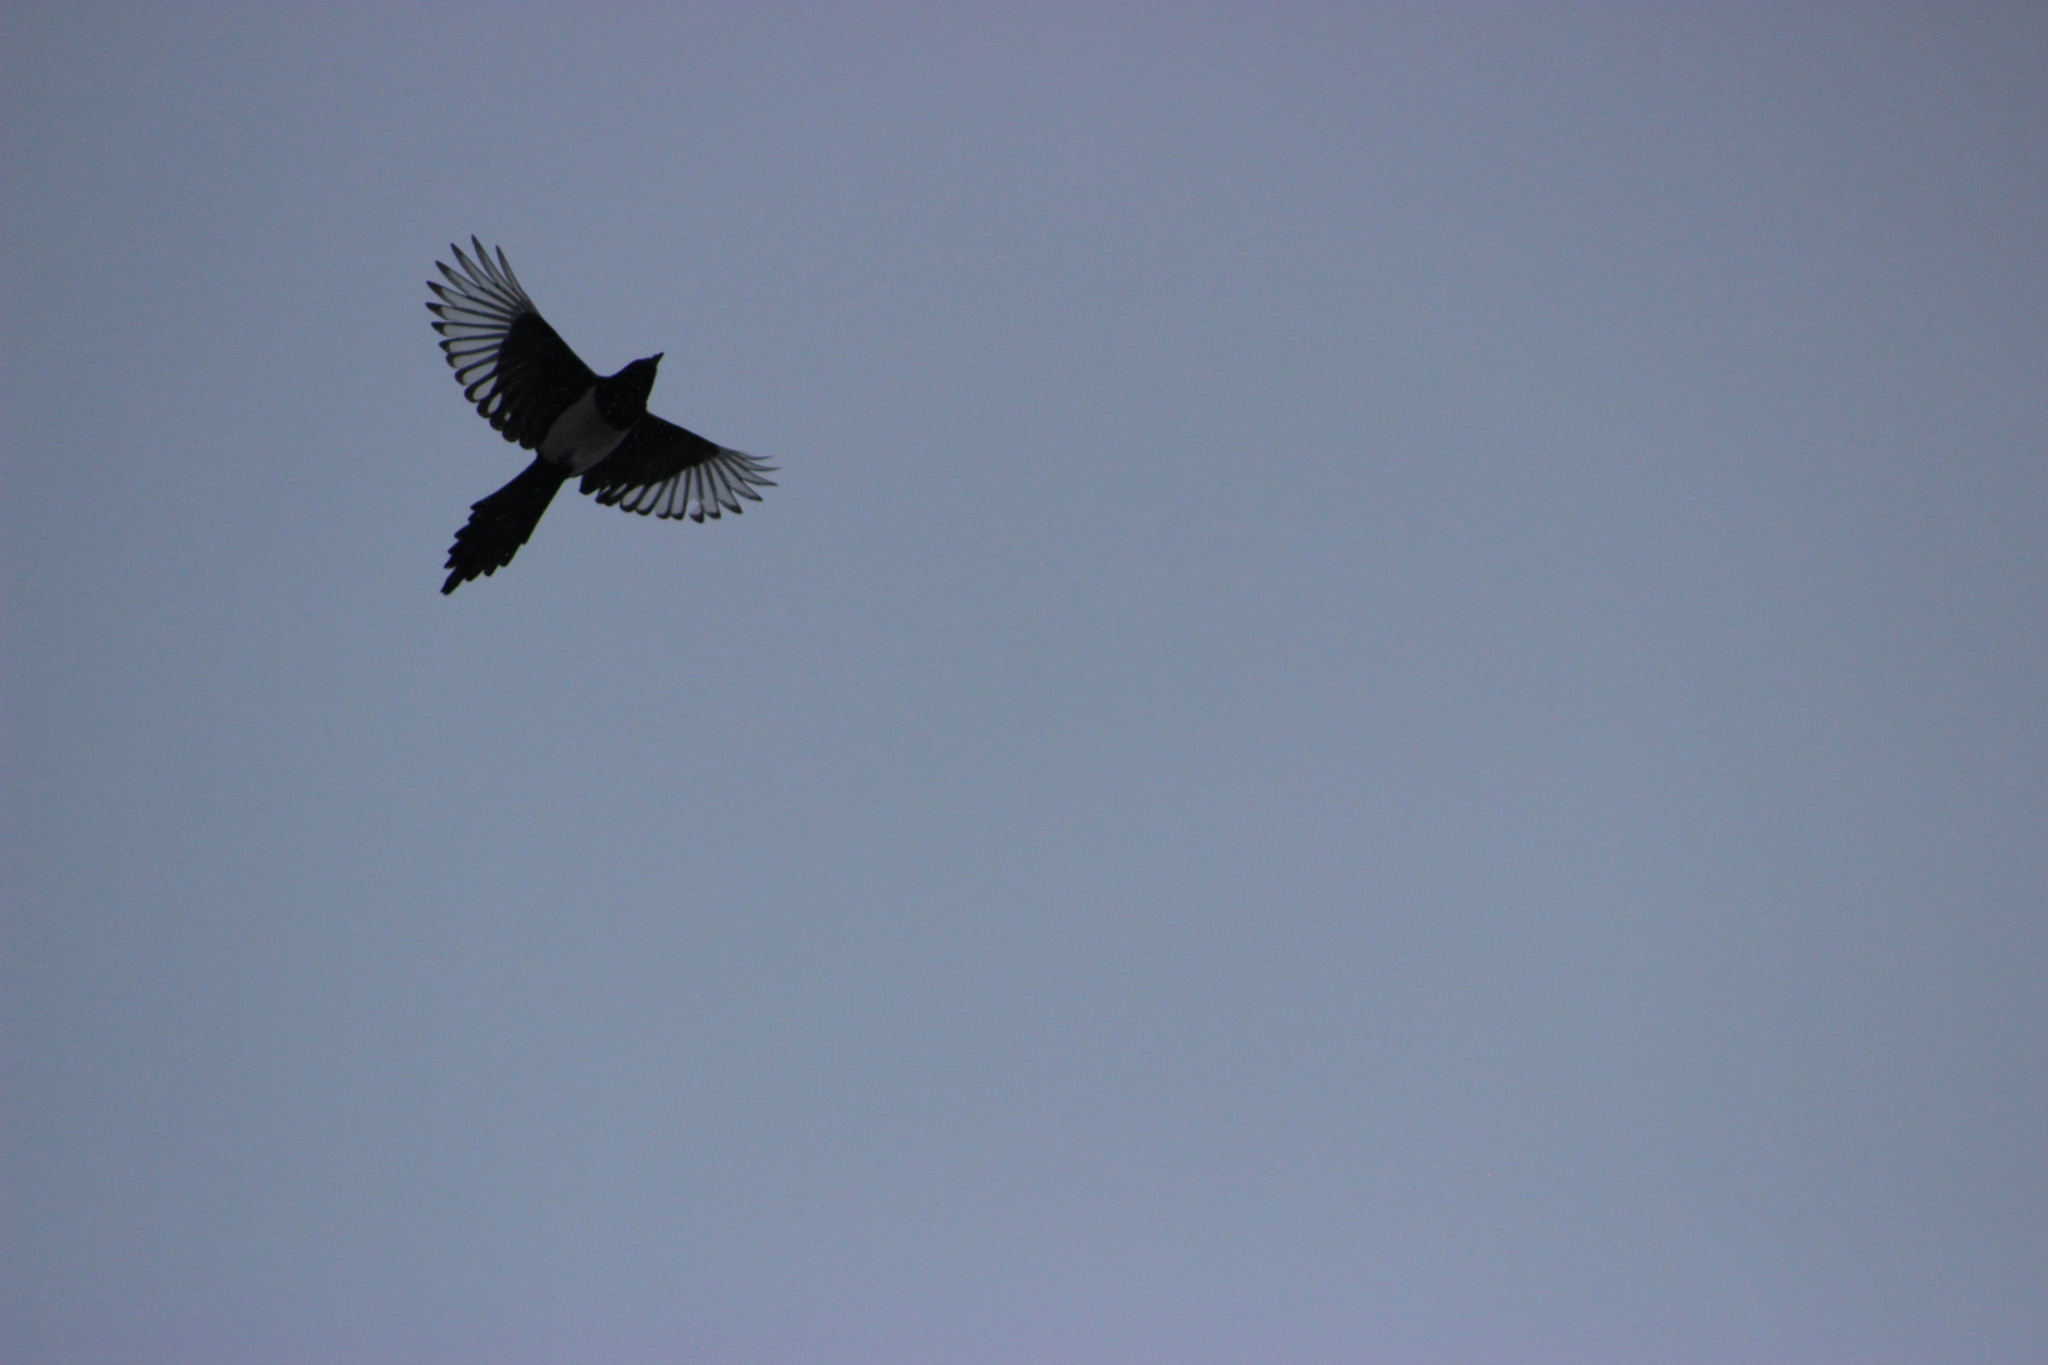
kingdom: Animalia
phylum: Chordata
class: Aves
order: Passeriformes
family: Corvidae
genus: Pica
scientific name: Pica pica
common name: Eurasian magpie
